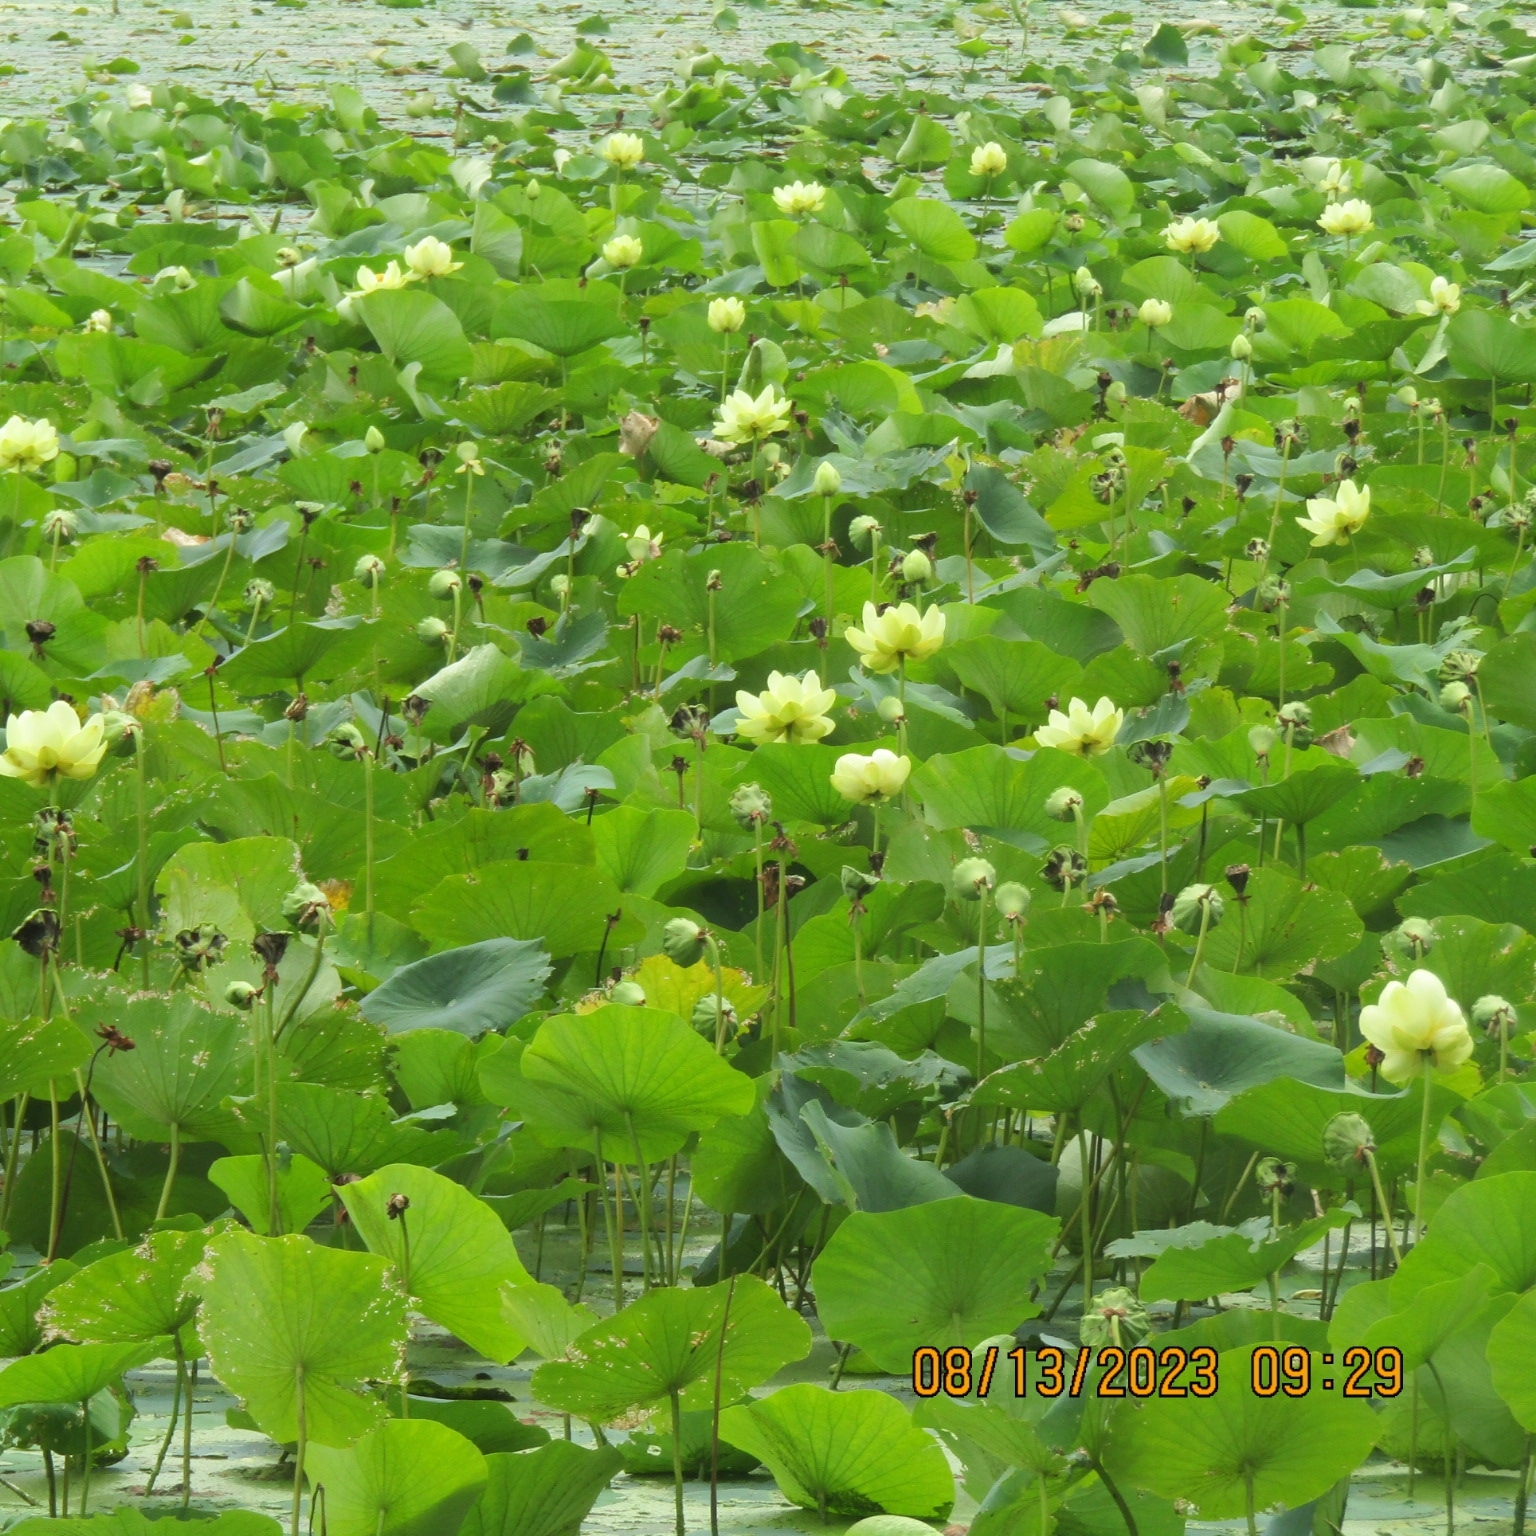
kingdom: Plantae
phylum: Tracheophyta
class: Magnoliopsida
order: Proteales
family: Nelumbonaceae
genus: Nelumbo
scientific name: Nelumbo lutea
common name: American lotus
